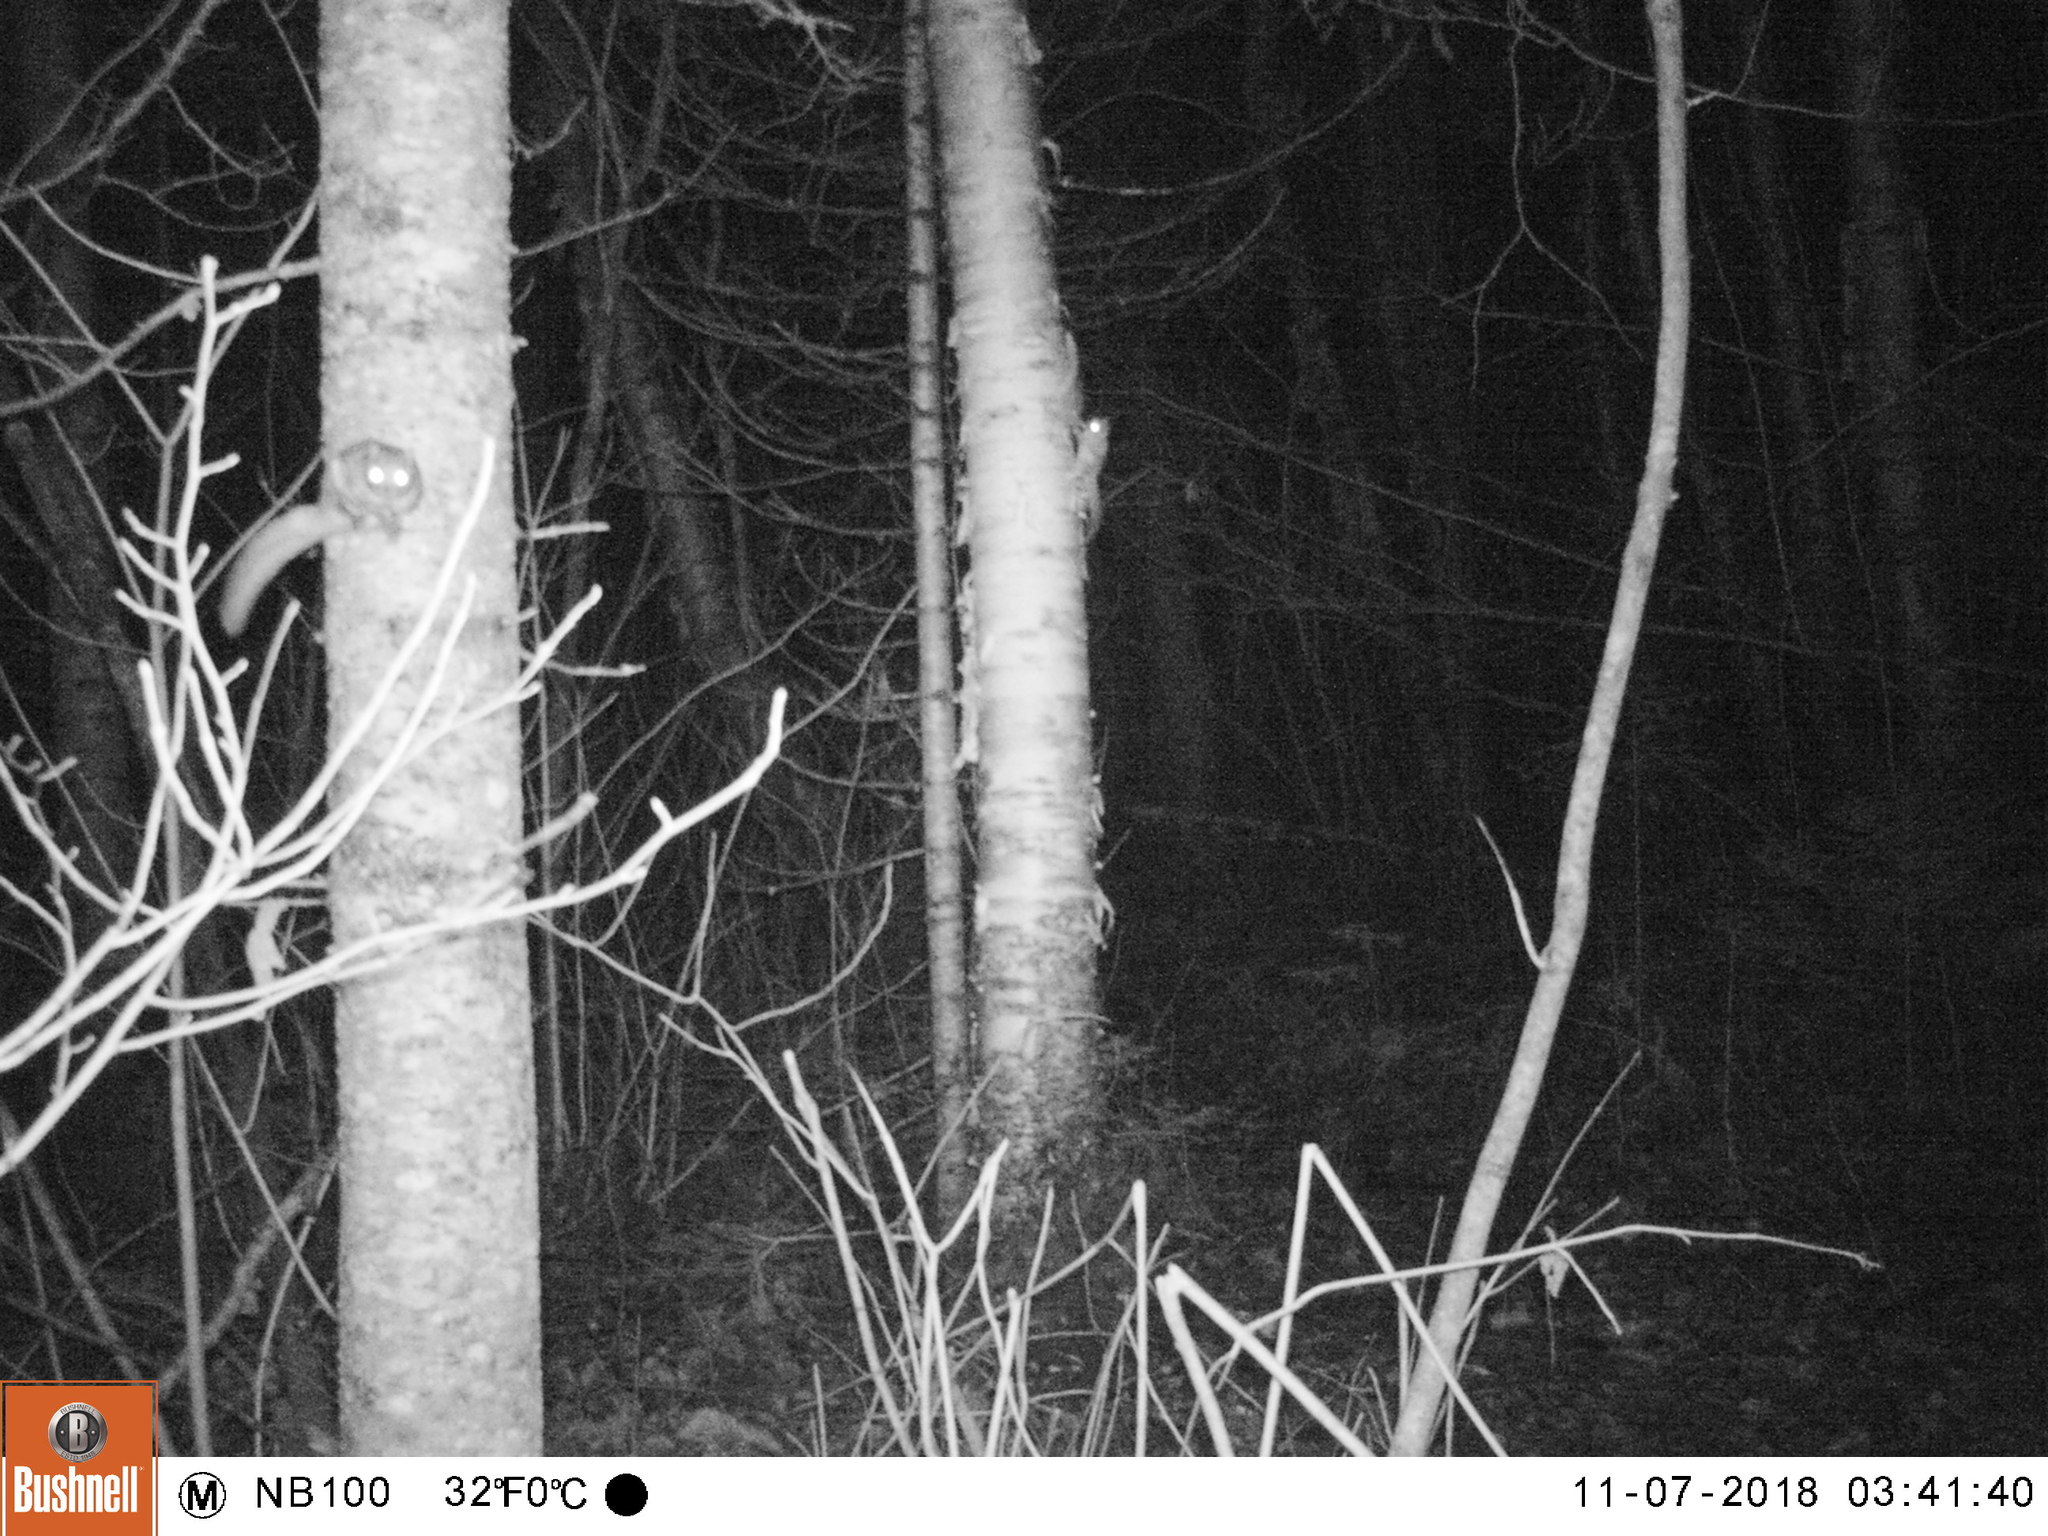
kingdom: Animalia
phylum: Chordata
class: Mammalia
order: Rodentia
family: Sciuridae
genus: Glaucomys
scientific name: Glaucomys sabrinus
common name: Northern flying squirrel
